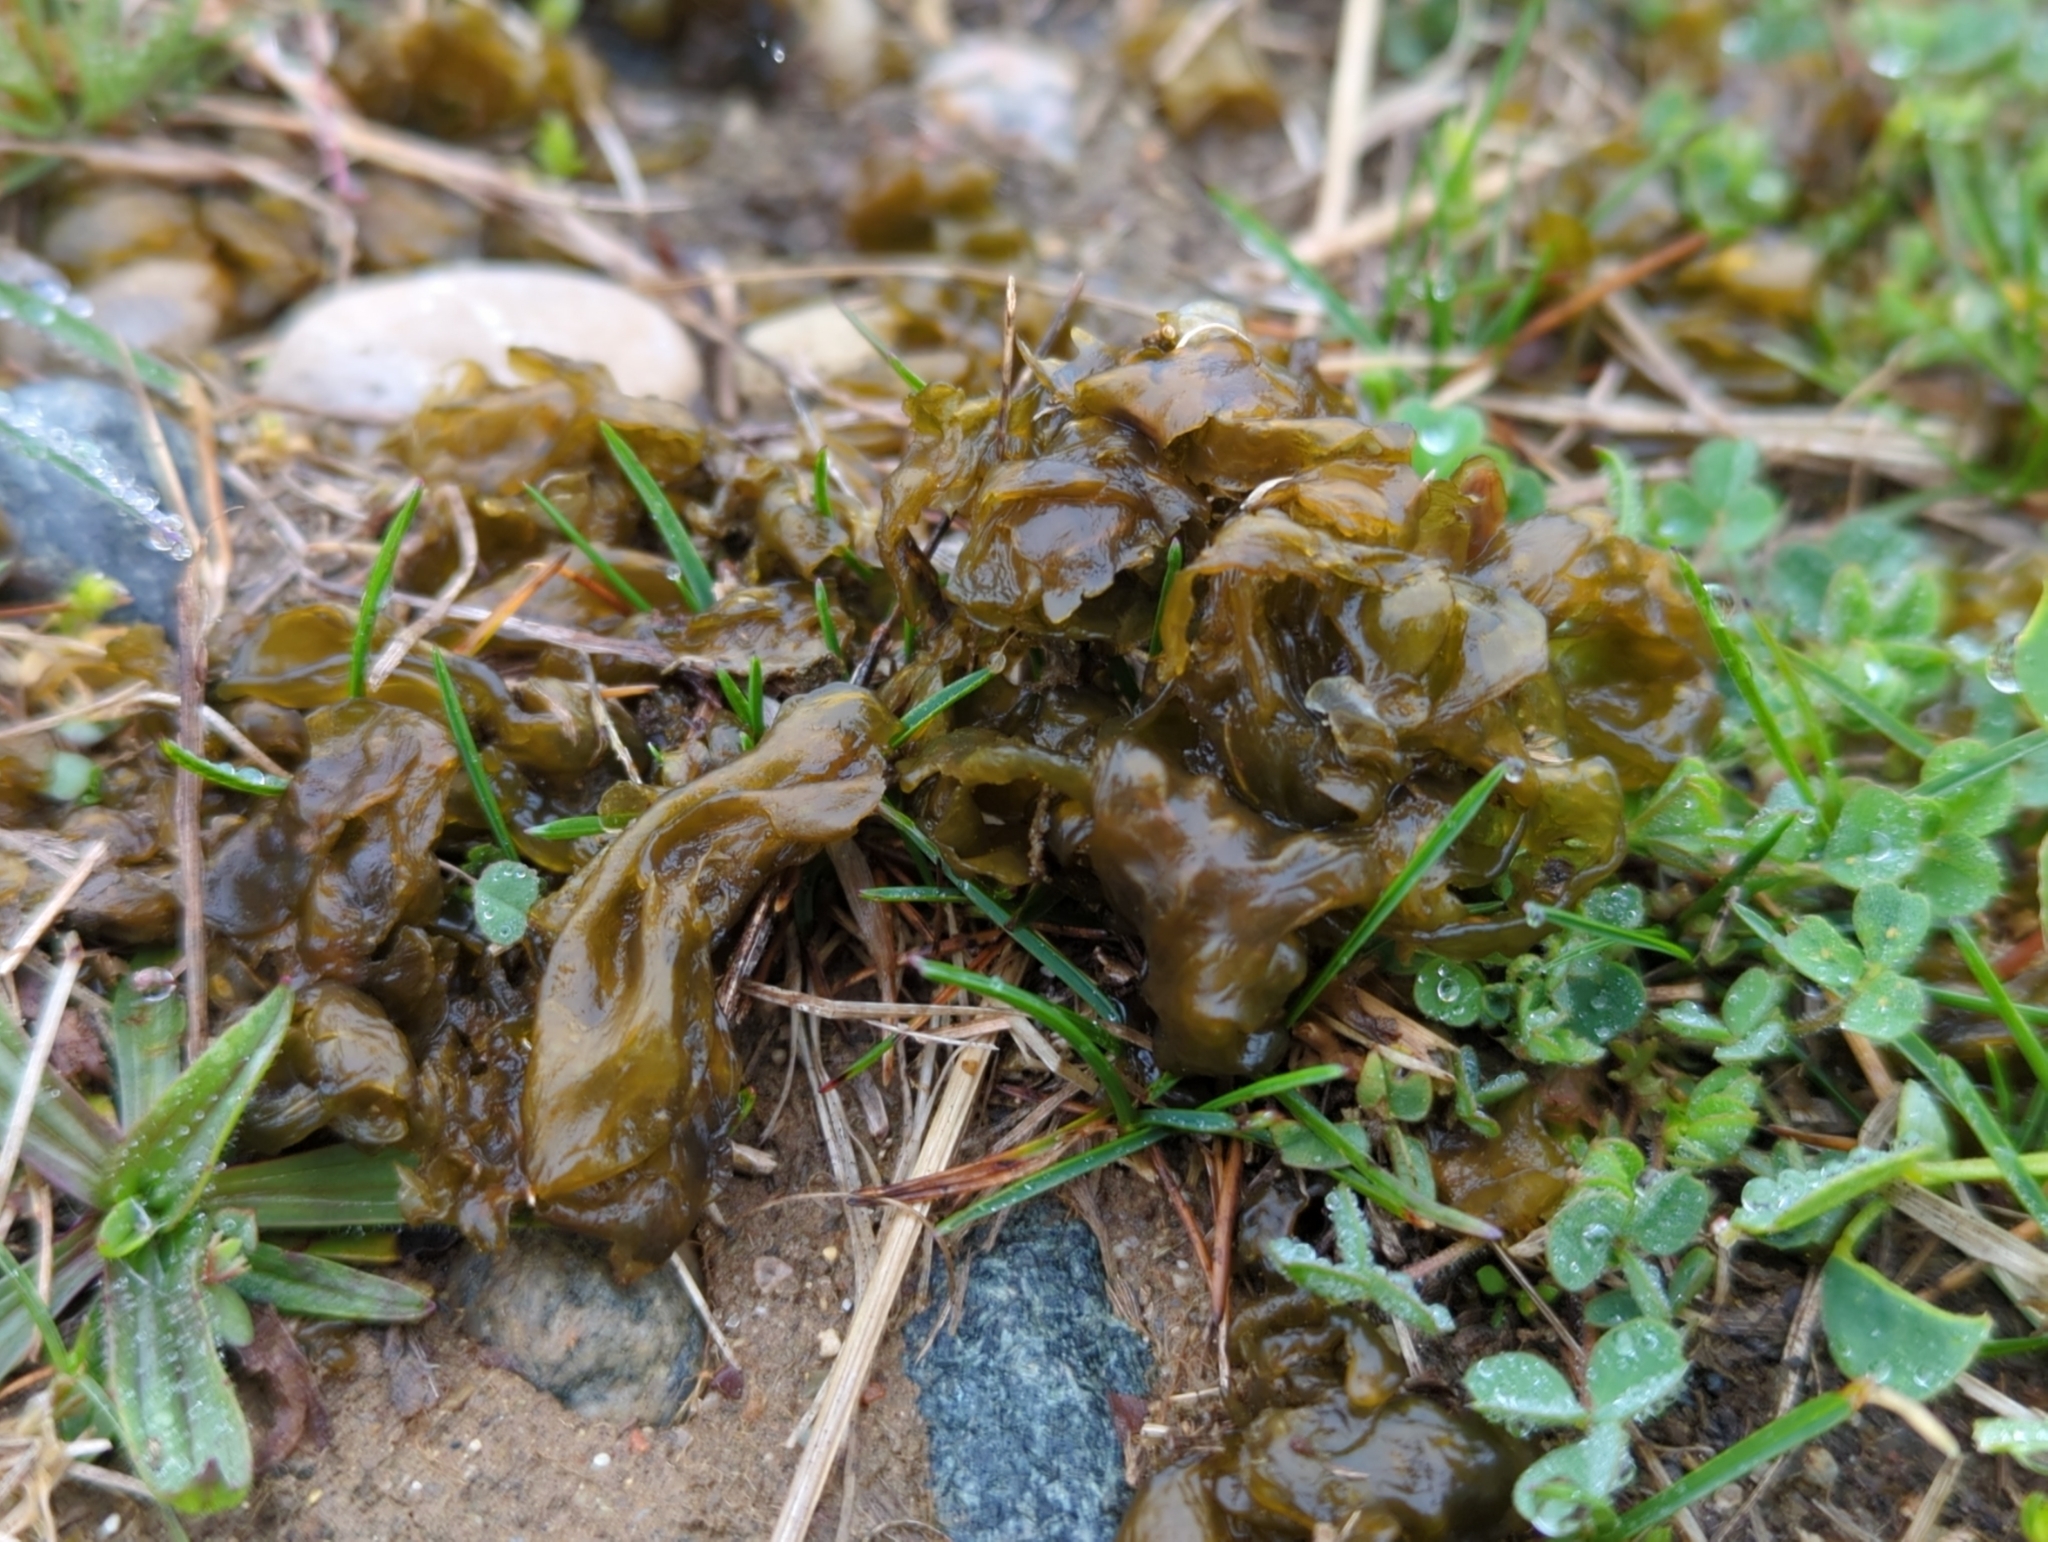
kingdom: Bacteria
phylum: Cyanobacteria
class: Cyanobacteriia
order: Cyanobacteriales
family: Nostocaceae
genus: Nostoc
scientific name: Nostoc commune
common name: Star jelly
